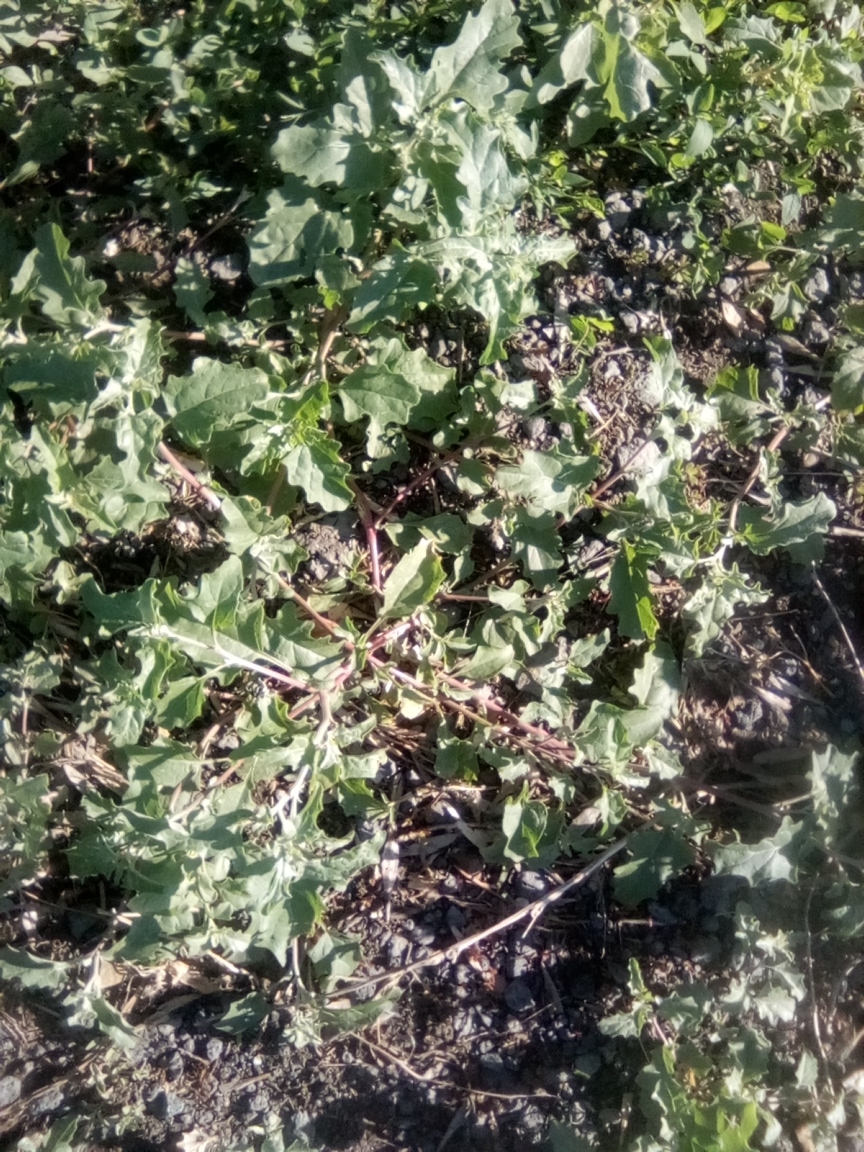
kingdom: Plantae
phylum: Tracheophyta
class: Magnoliopsida
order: Caryophyllales
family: Amaranthaceae
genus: Atriplex
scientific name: Atriplex tatarica
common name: Tatarian orache
